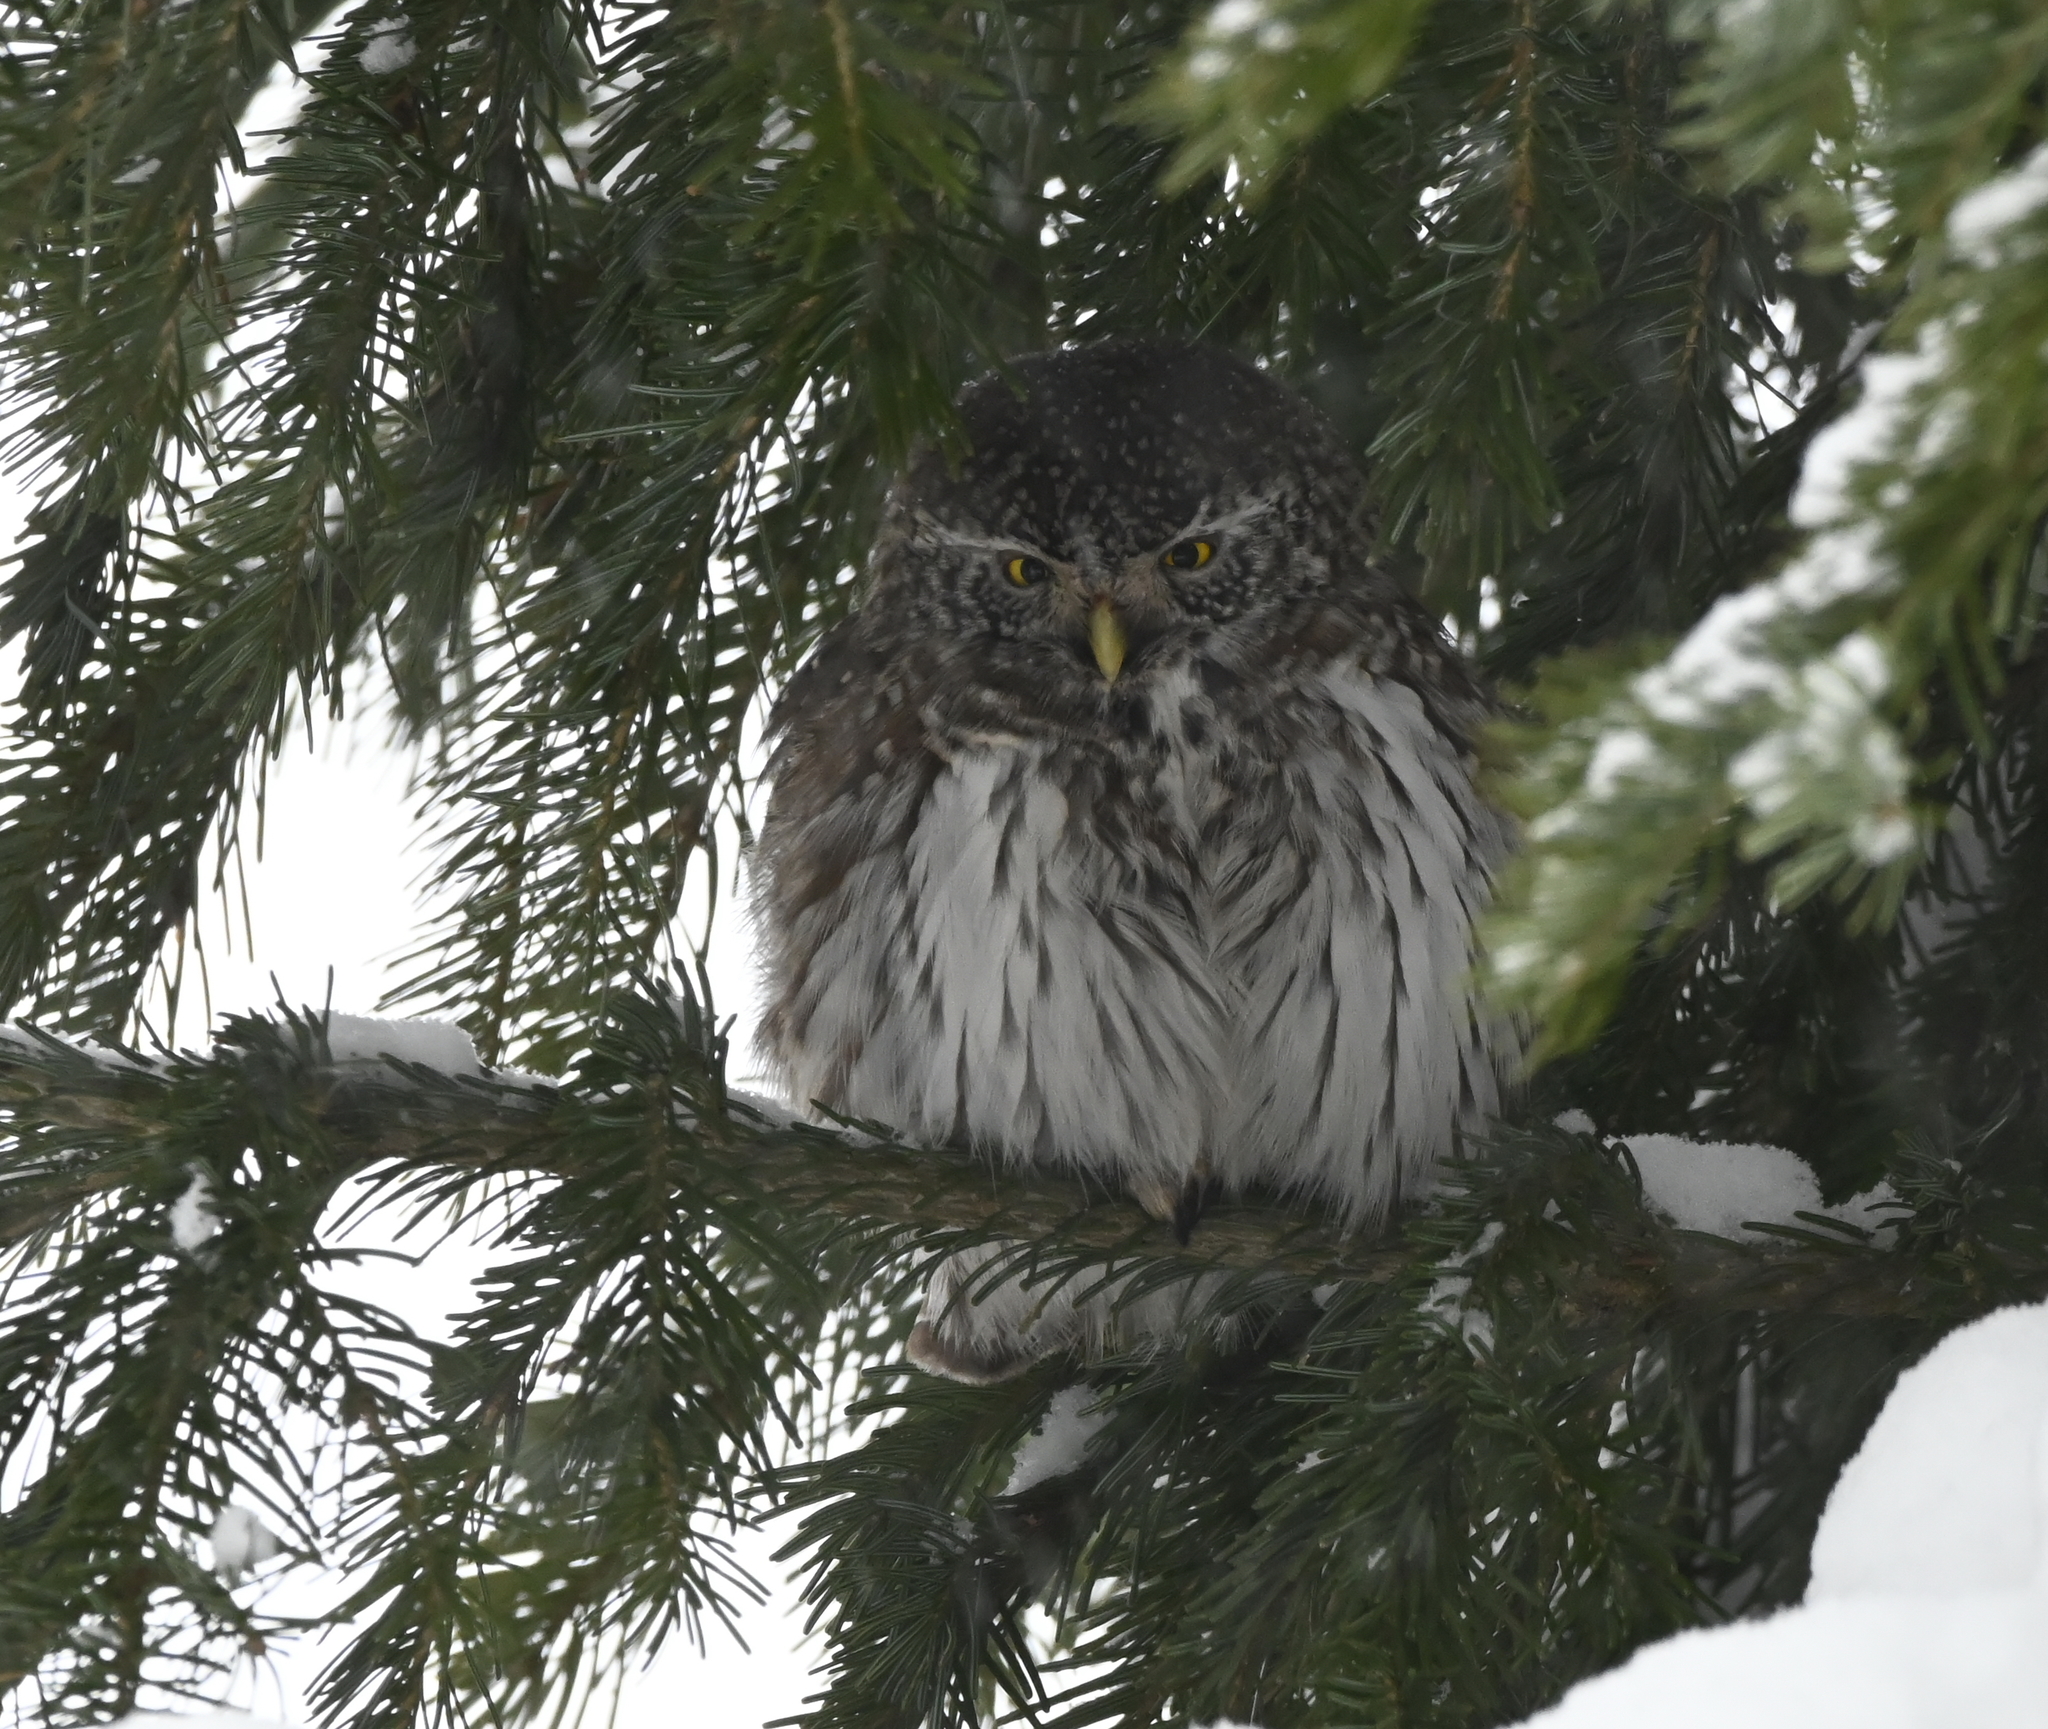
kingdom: Animalia
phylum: Chordata
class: Aves
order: Strigiformes
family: Strigidae
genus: Glaucidium
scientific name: Glaucidium passerinum
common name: Eurasian pygmy owl
